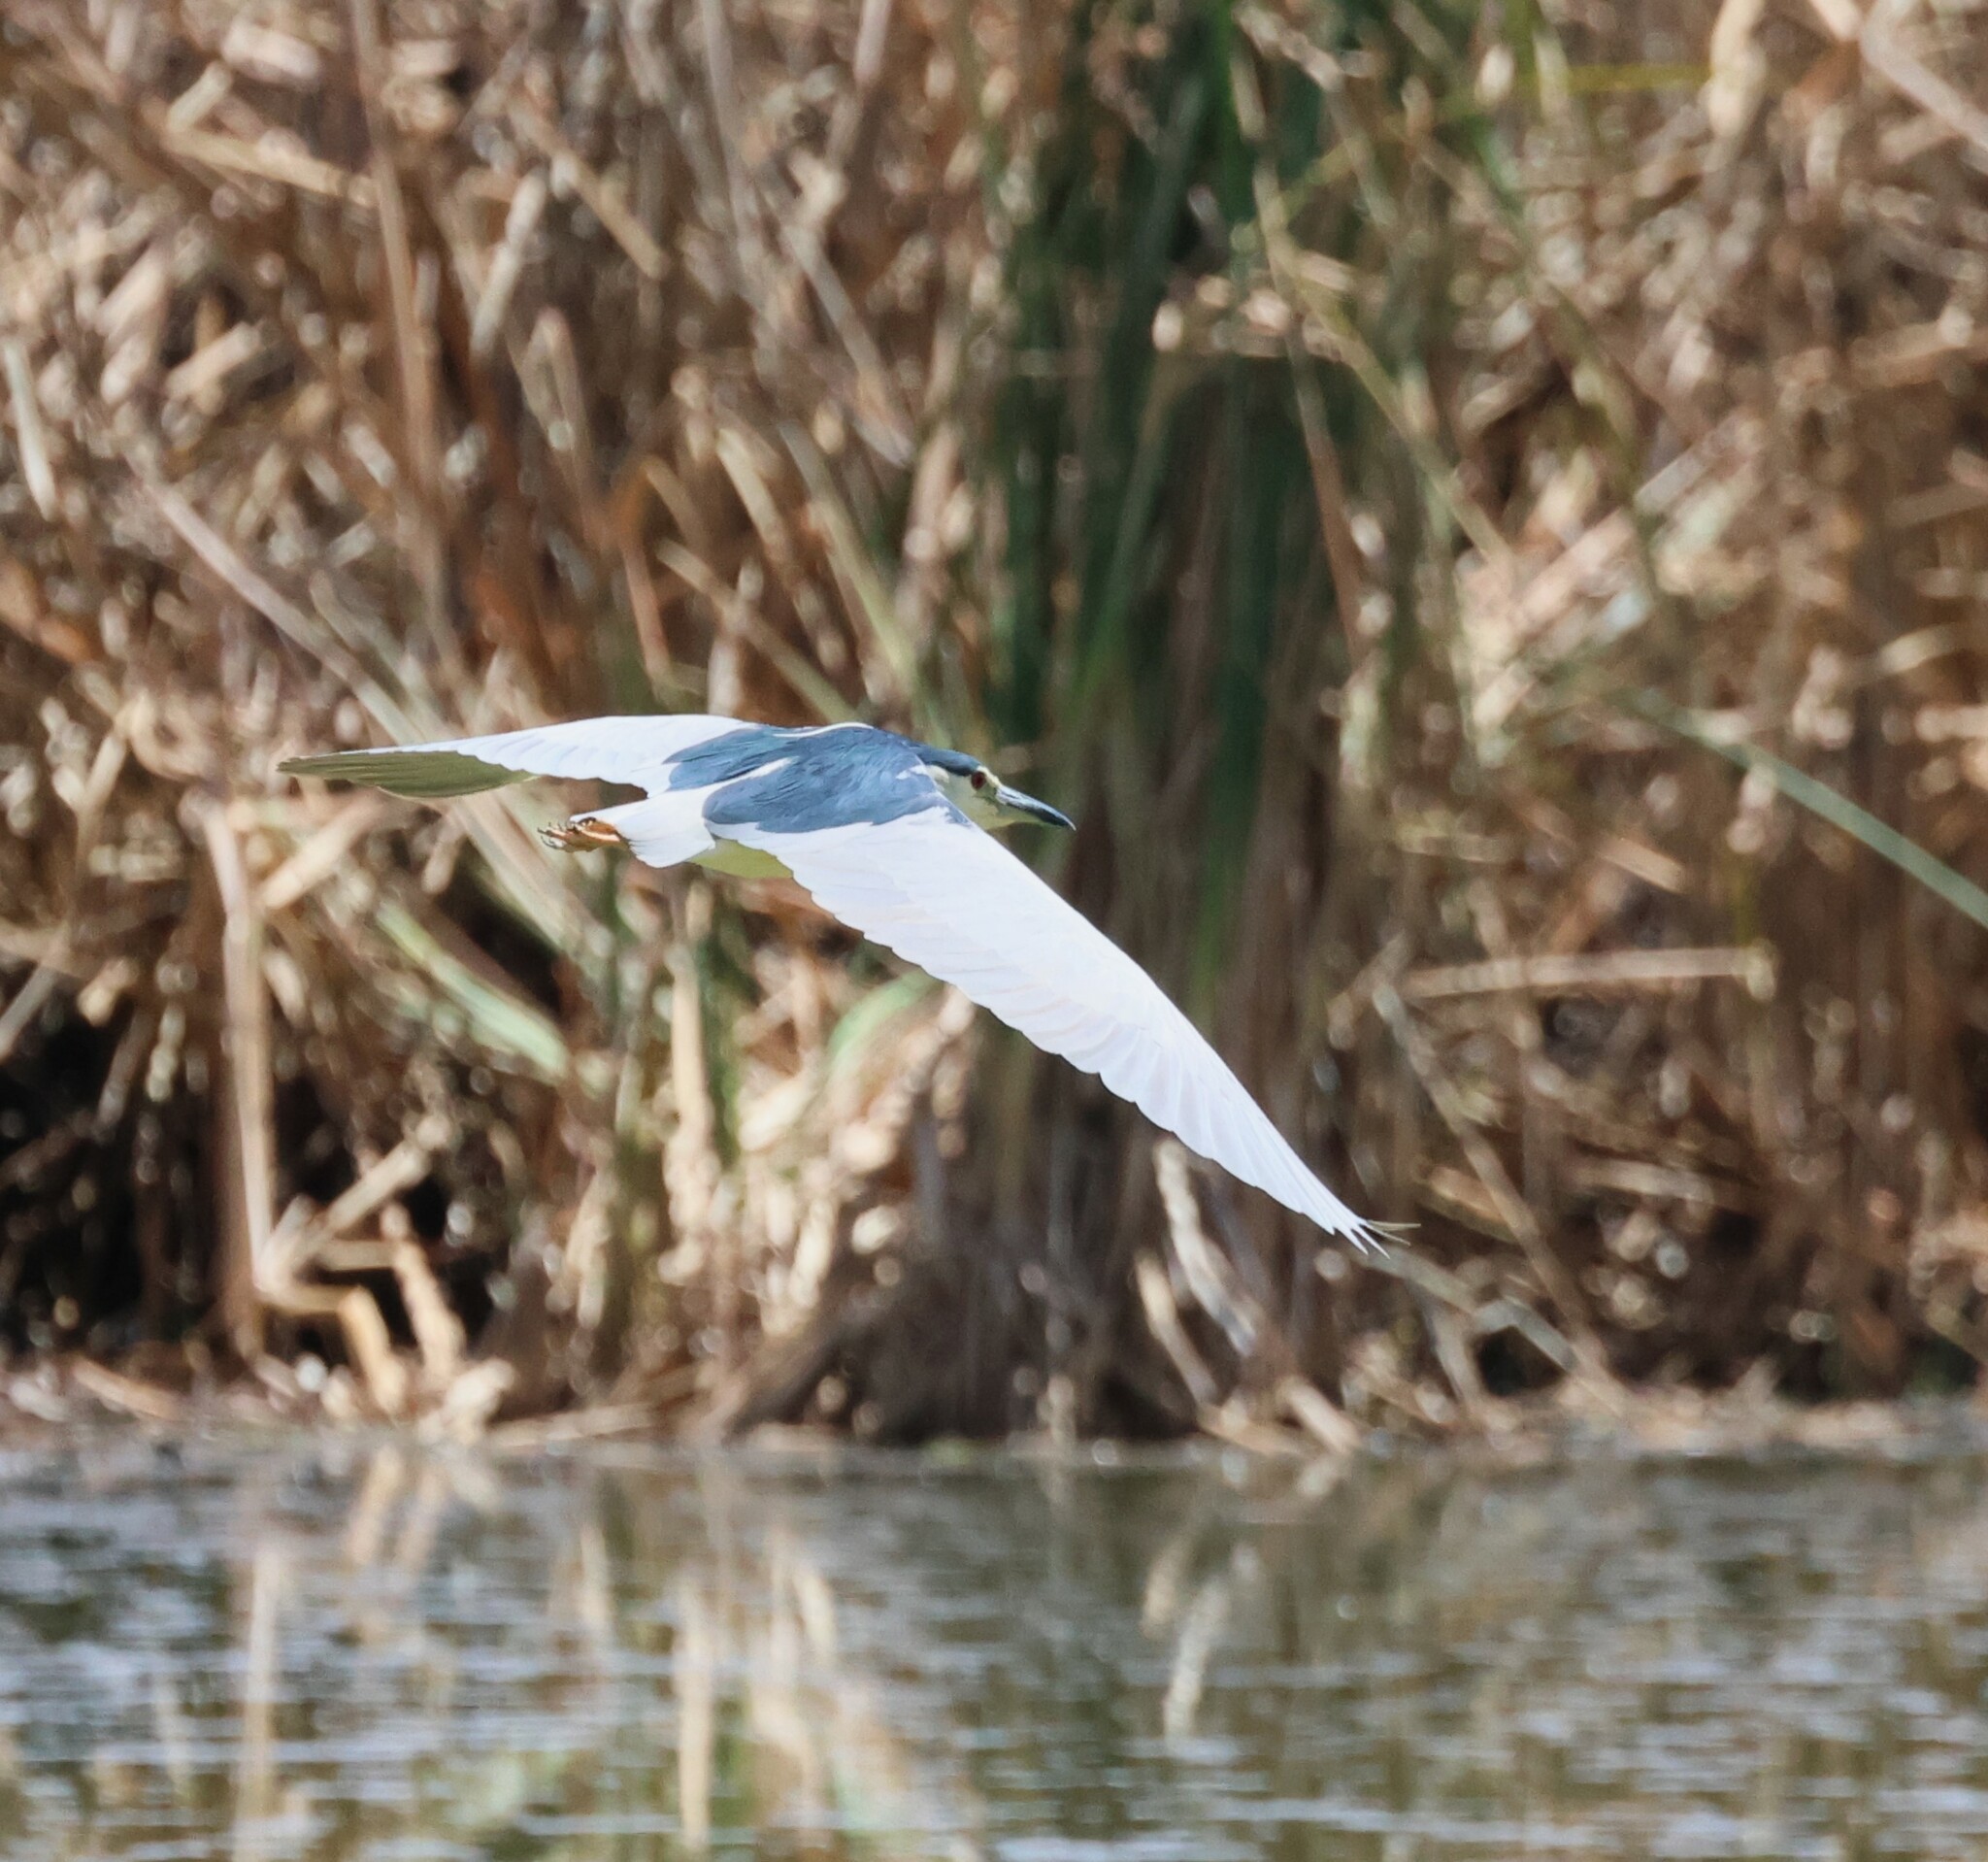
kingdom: Animalia
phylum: Chordata
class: Aves
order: Pelecaniformes
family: Ardeidae
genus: Nycticorax
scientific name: Nycticorax nycticorax
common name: Black-crowned night heron
